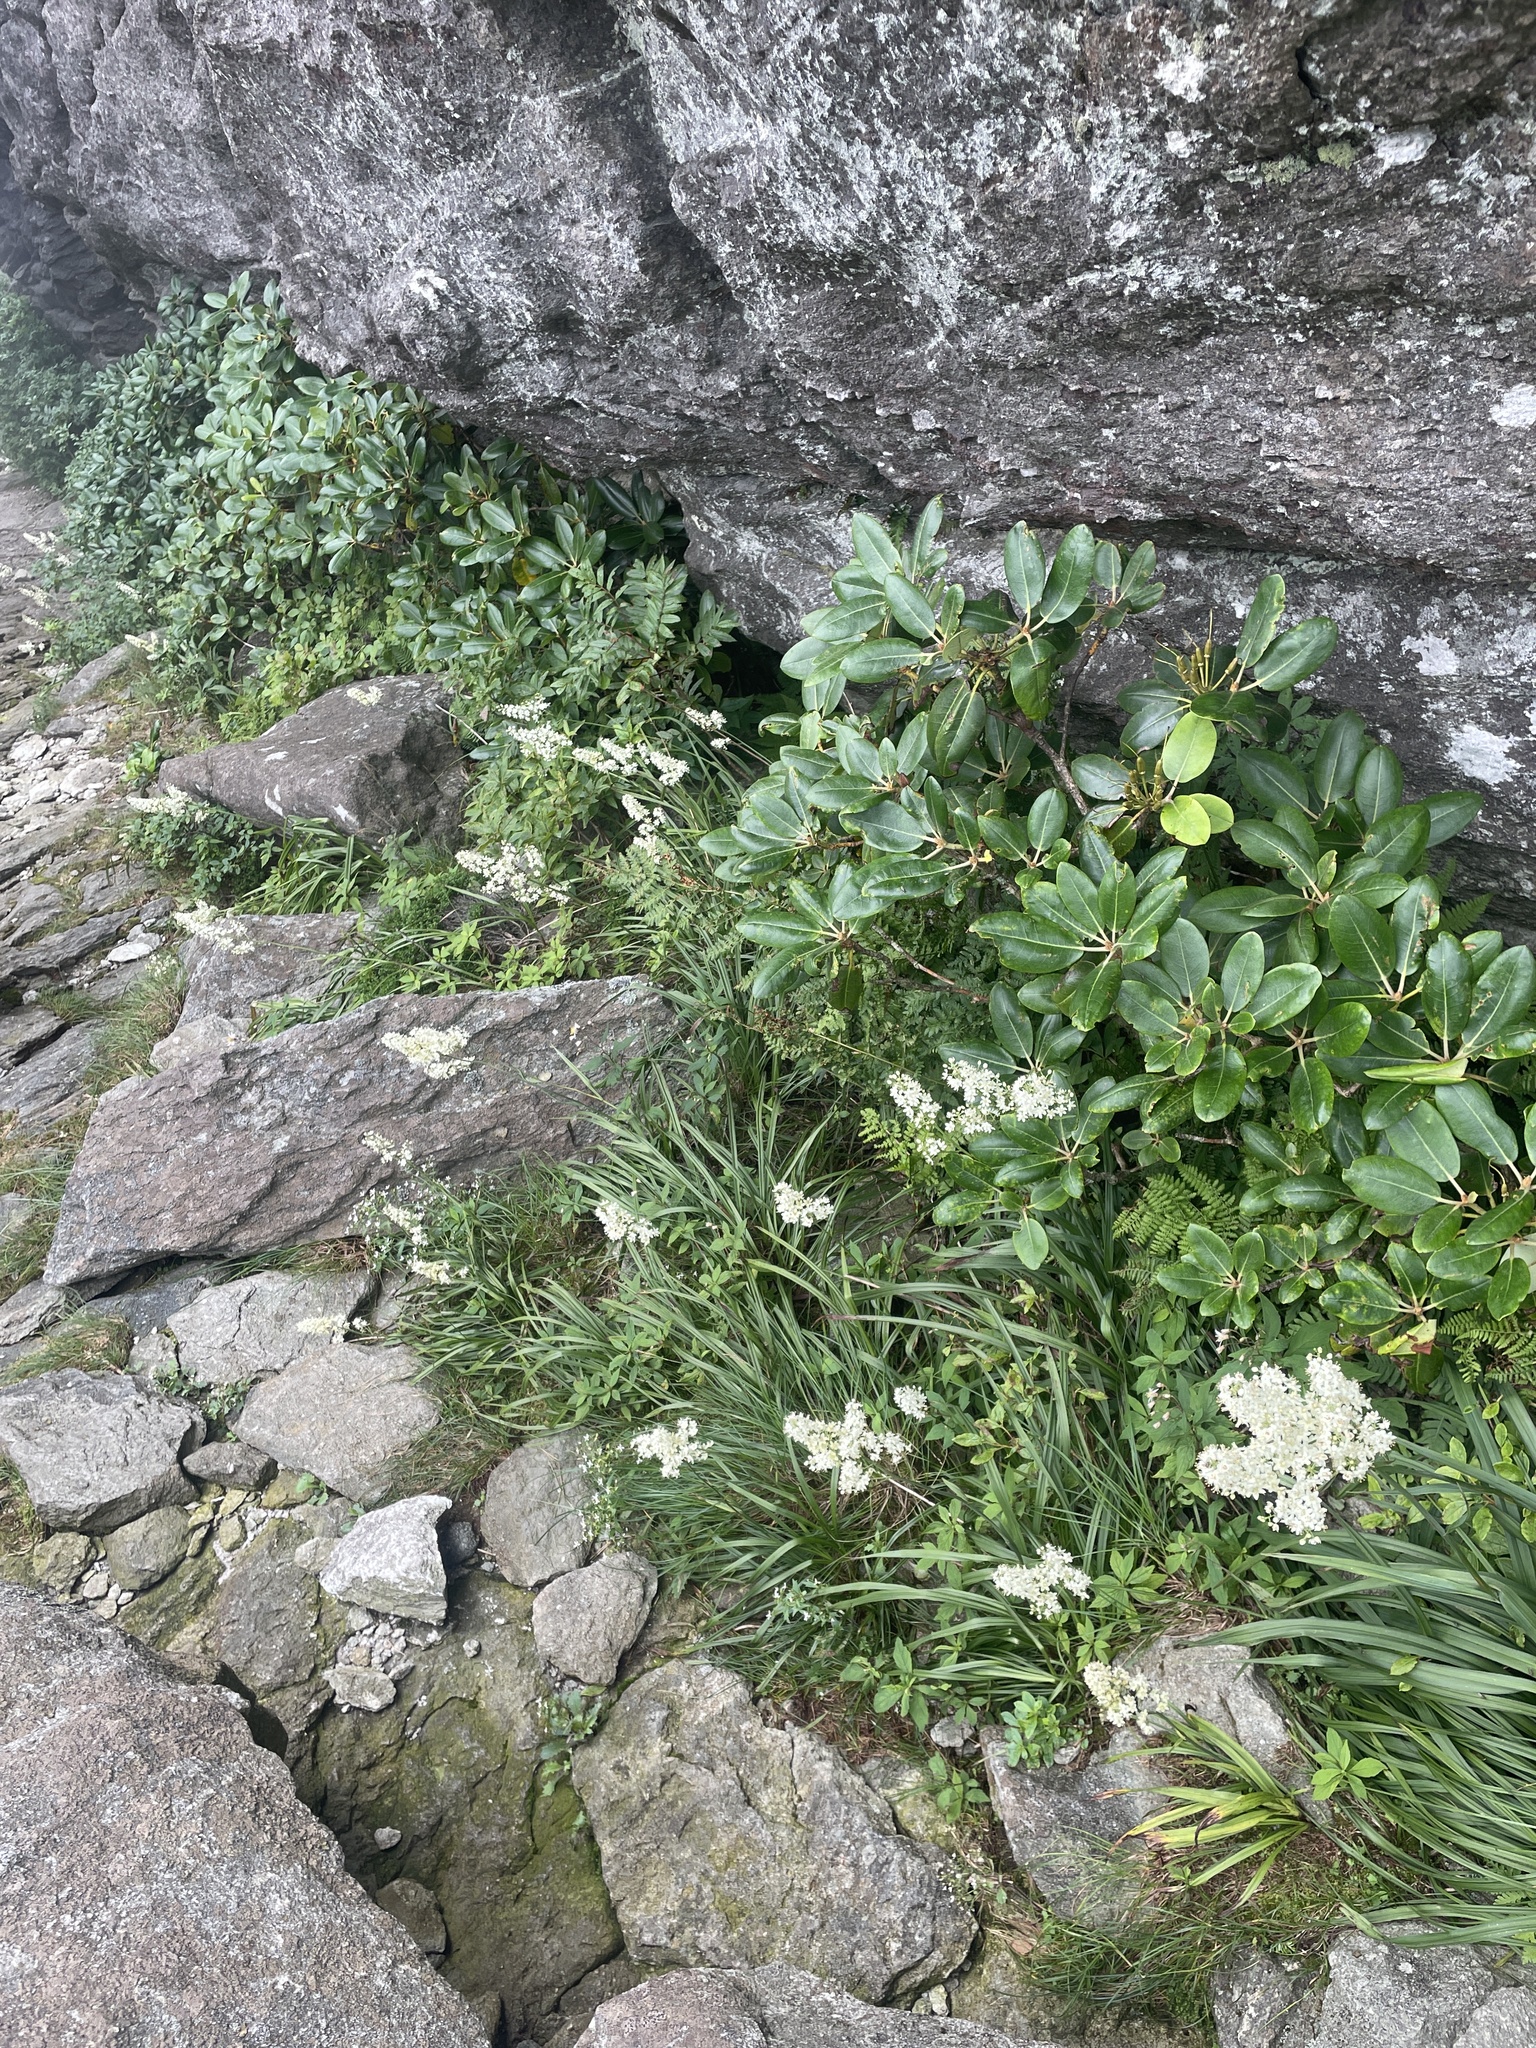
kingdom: Plantae
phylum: Tracheophyta
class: Liliopsida
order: Liliales
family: Melanthiaceae
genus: Stenanthium
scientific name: Stenanthium leimanthoides
